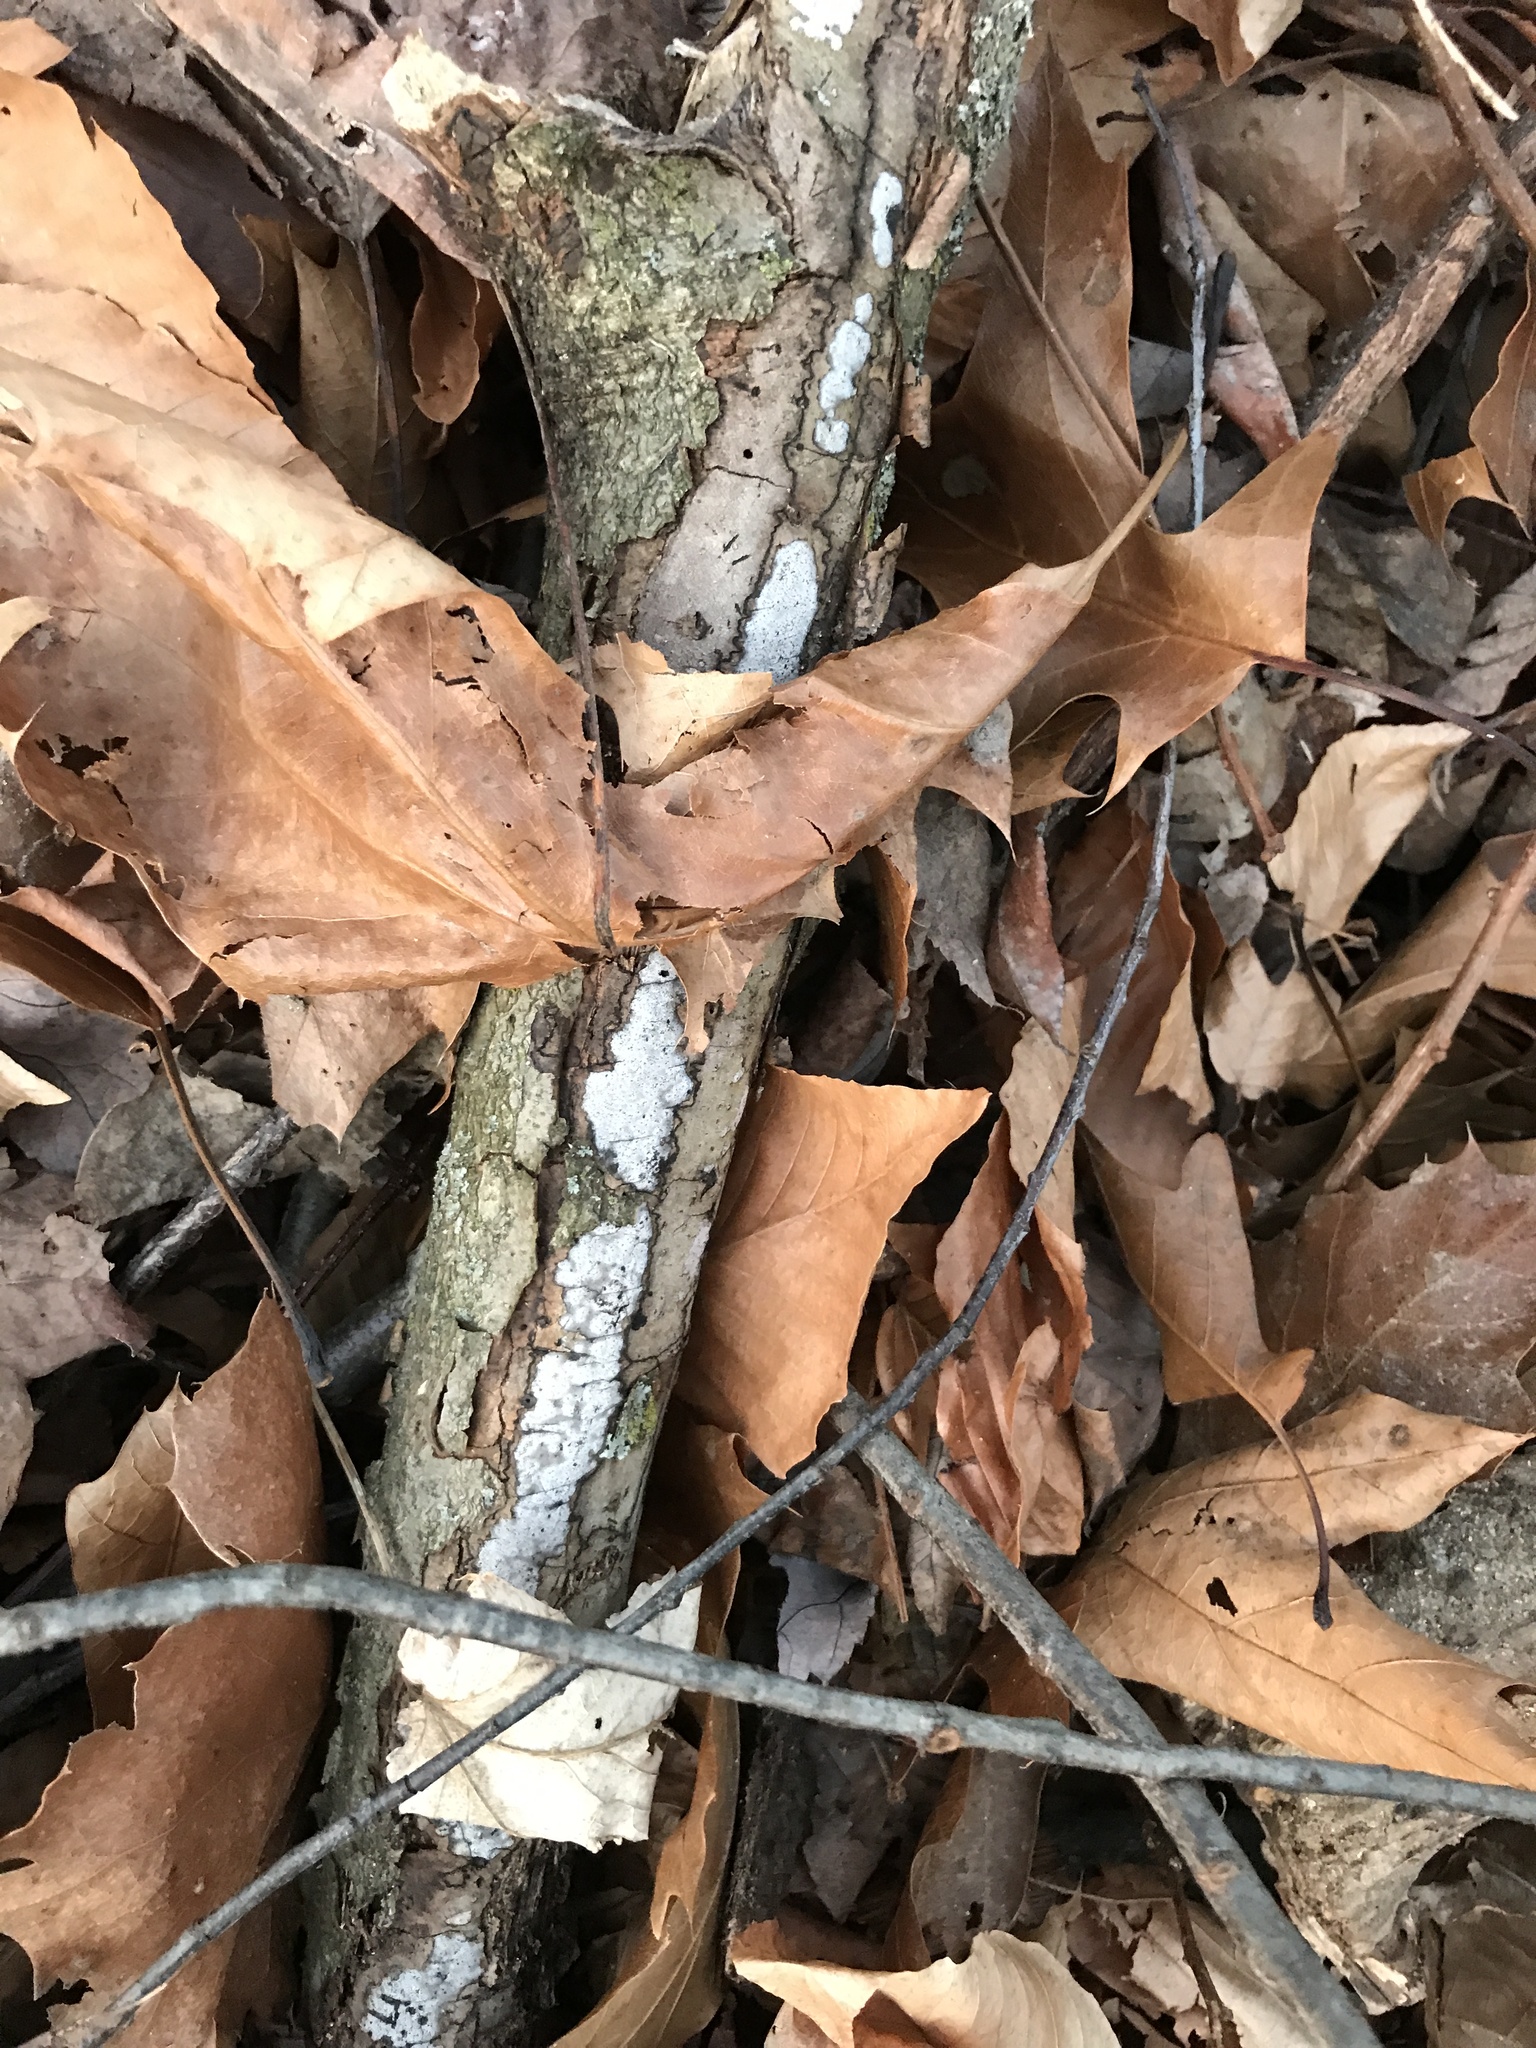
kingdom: Fungi
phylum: Ascomycota
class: Sordariomycetes
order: Xylariales
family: Graphostromataceae
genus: Biscogniauxia
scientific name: Biscogniauxia atropunctata
